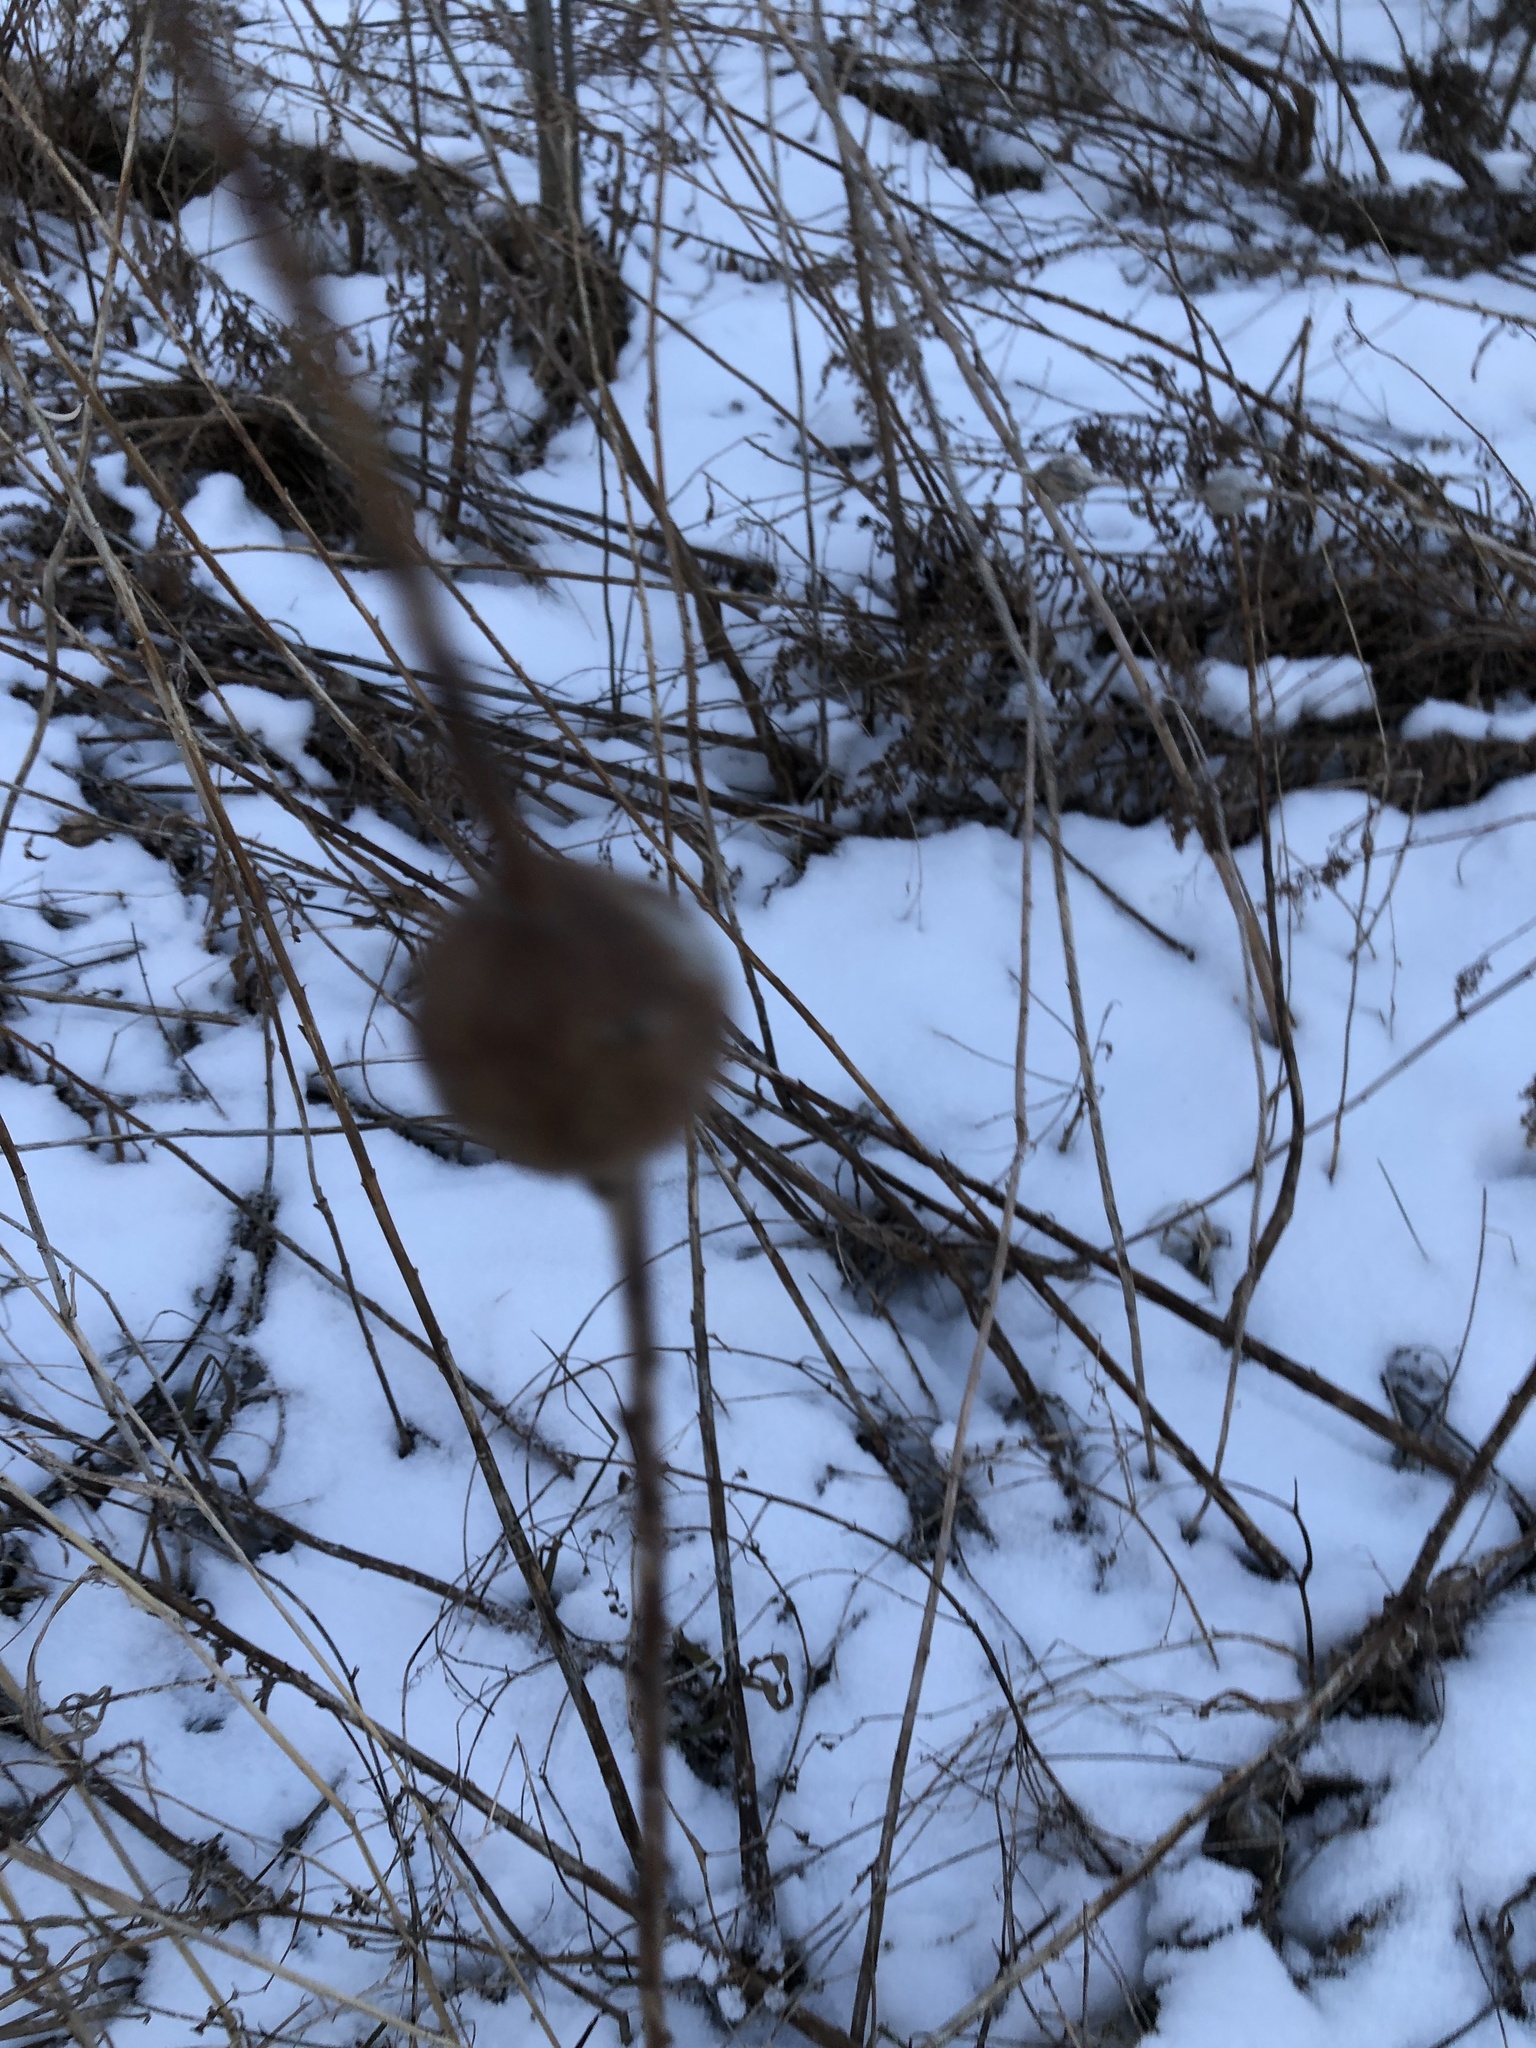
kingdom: Animalia
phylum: Arthropoda
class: Insecta
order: Diptera
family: Tephritidae
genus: Eurosta
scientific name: Eurosta solidaginis
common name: Goldenrod gall fly
